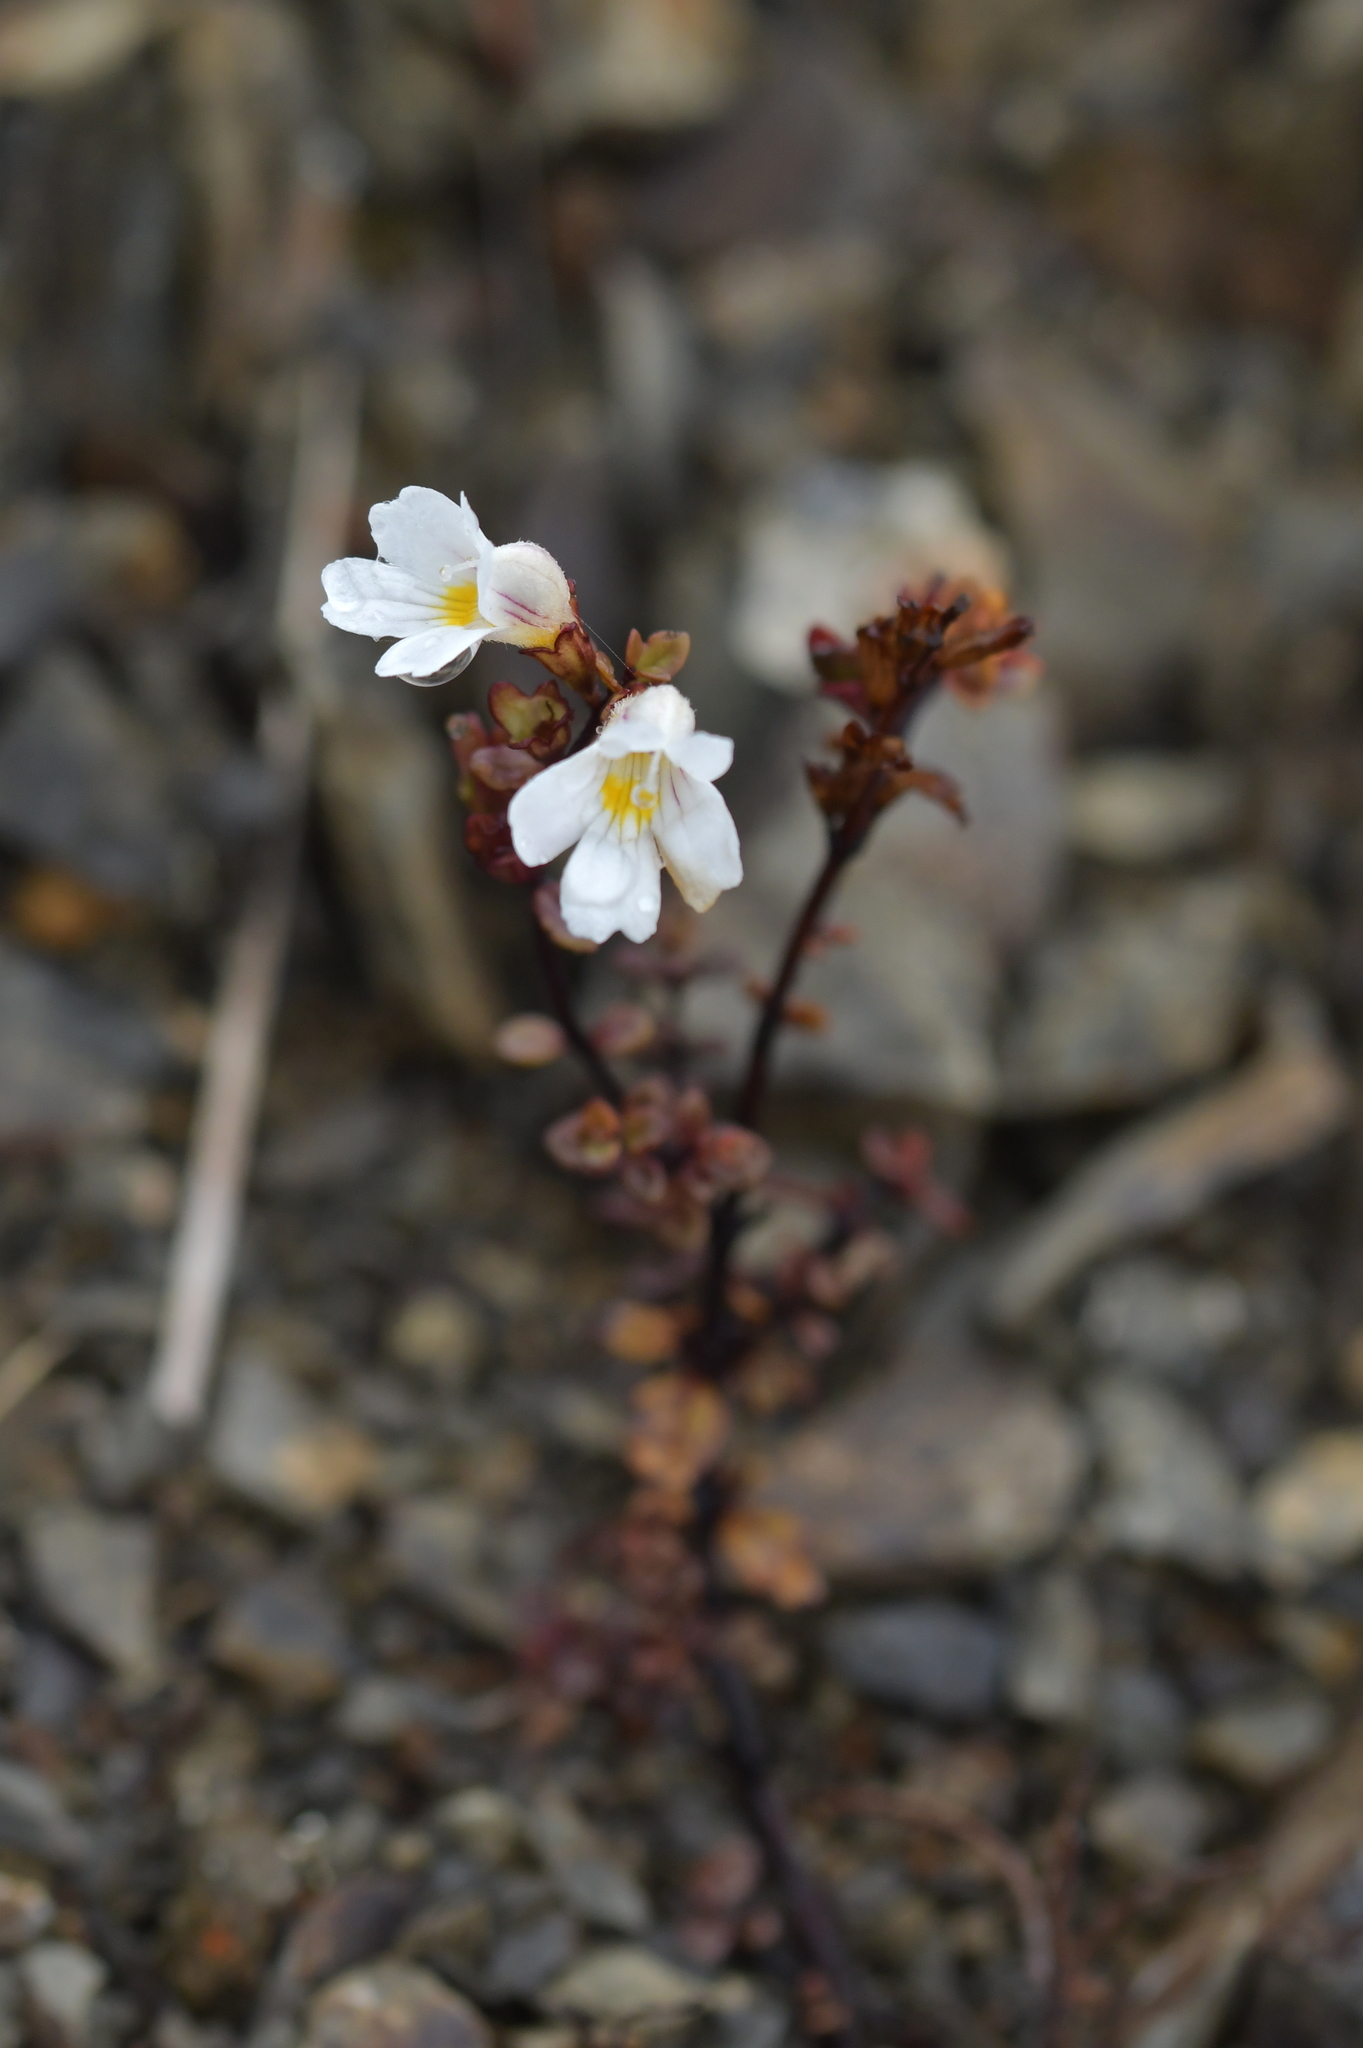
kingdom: Plantae
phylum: Tracheophyta
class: Magnoliopsida
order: Lamiales
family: Orobanchaceae
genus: Euphrasia
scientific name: Euphrasia cuneata
